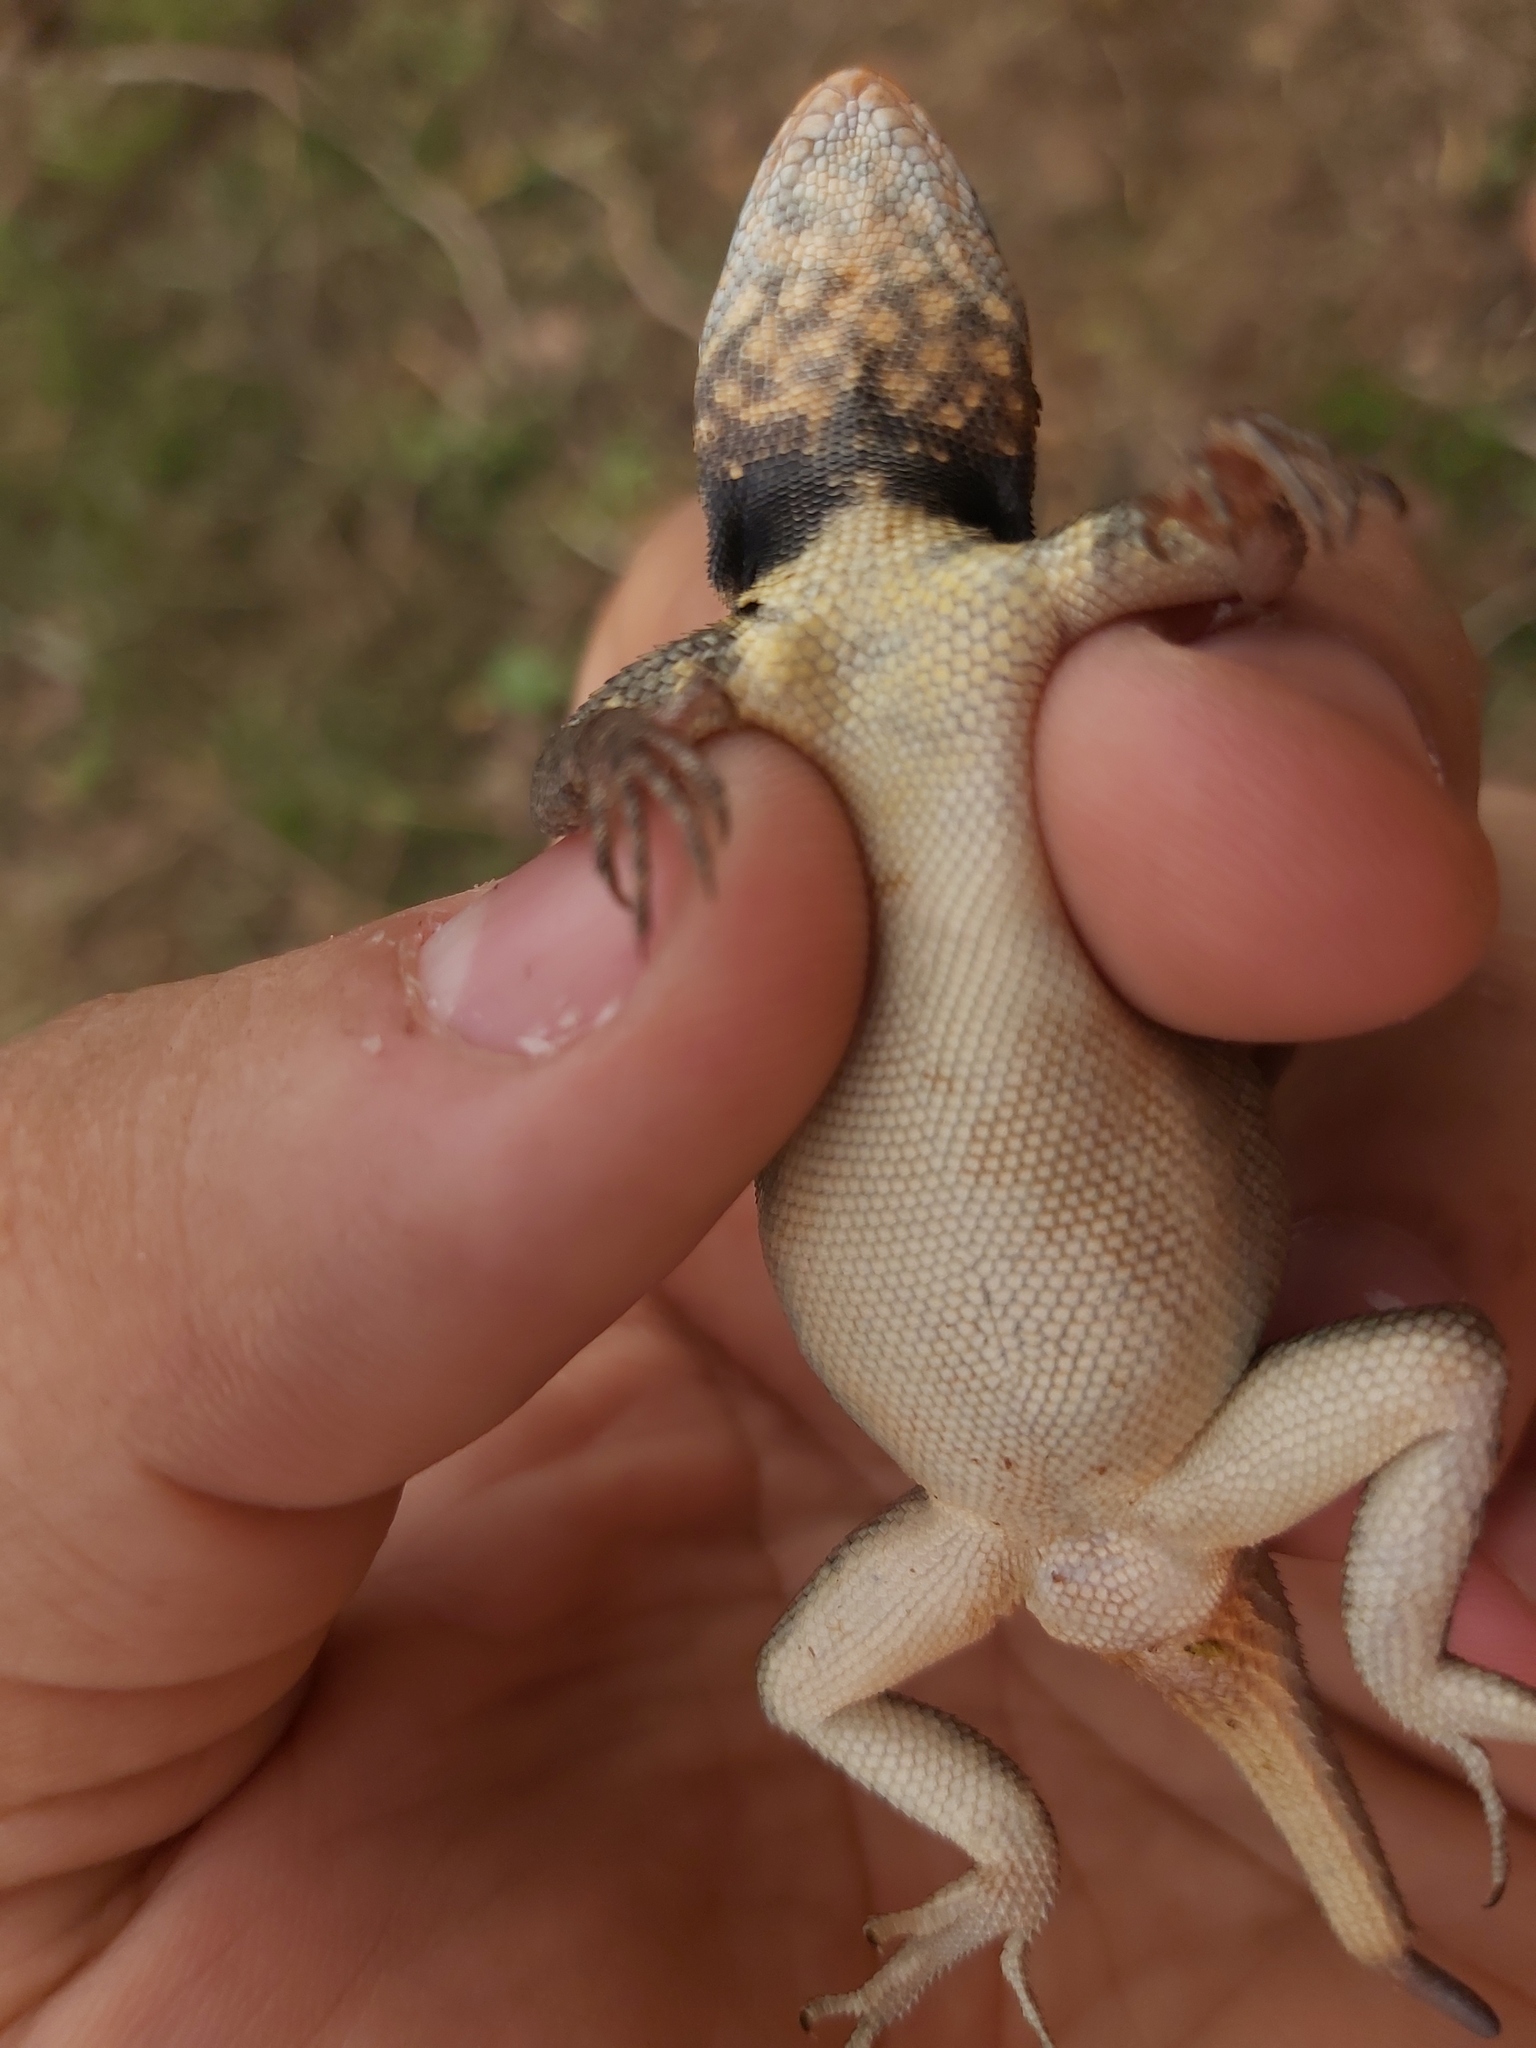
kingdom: Animalia
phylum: Chordata
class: Squamata
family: Tropiduridae
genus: Tropidurus
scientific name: Tropidurus erythrocephalus
